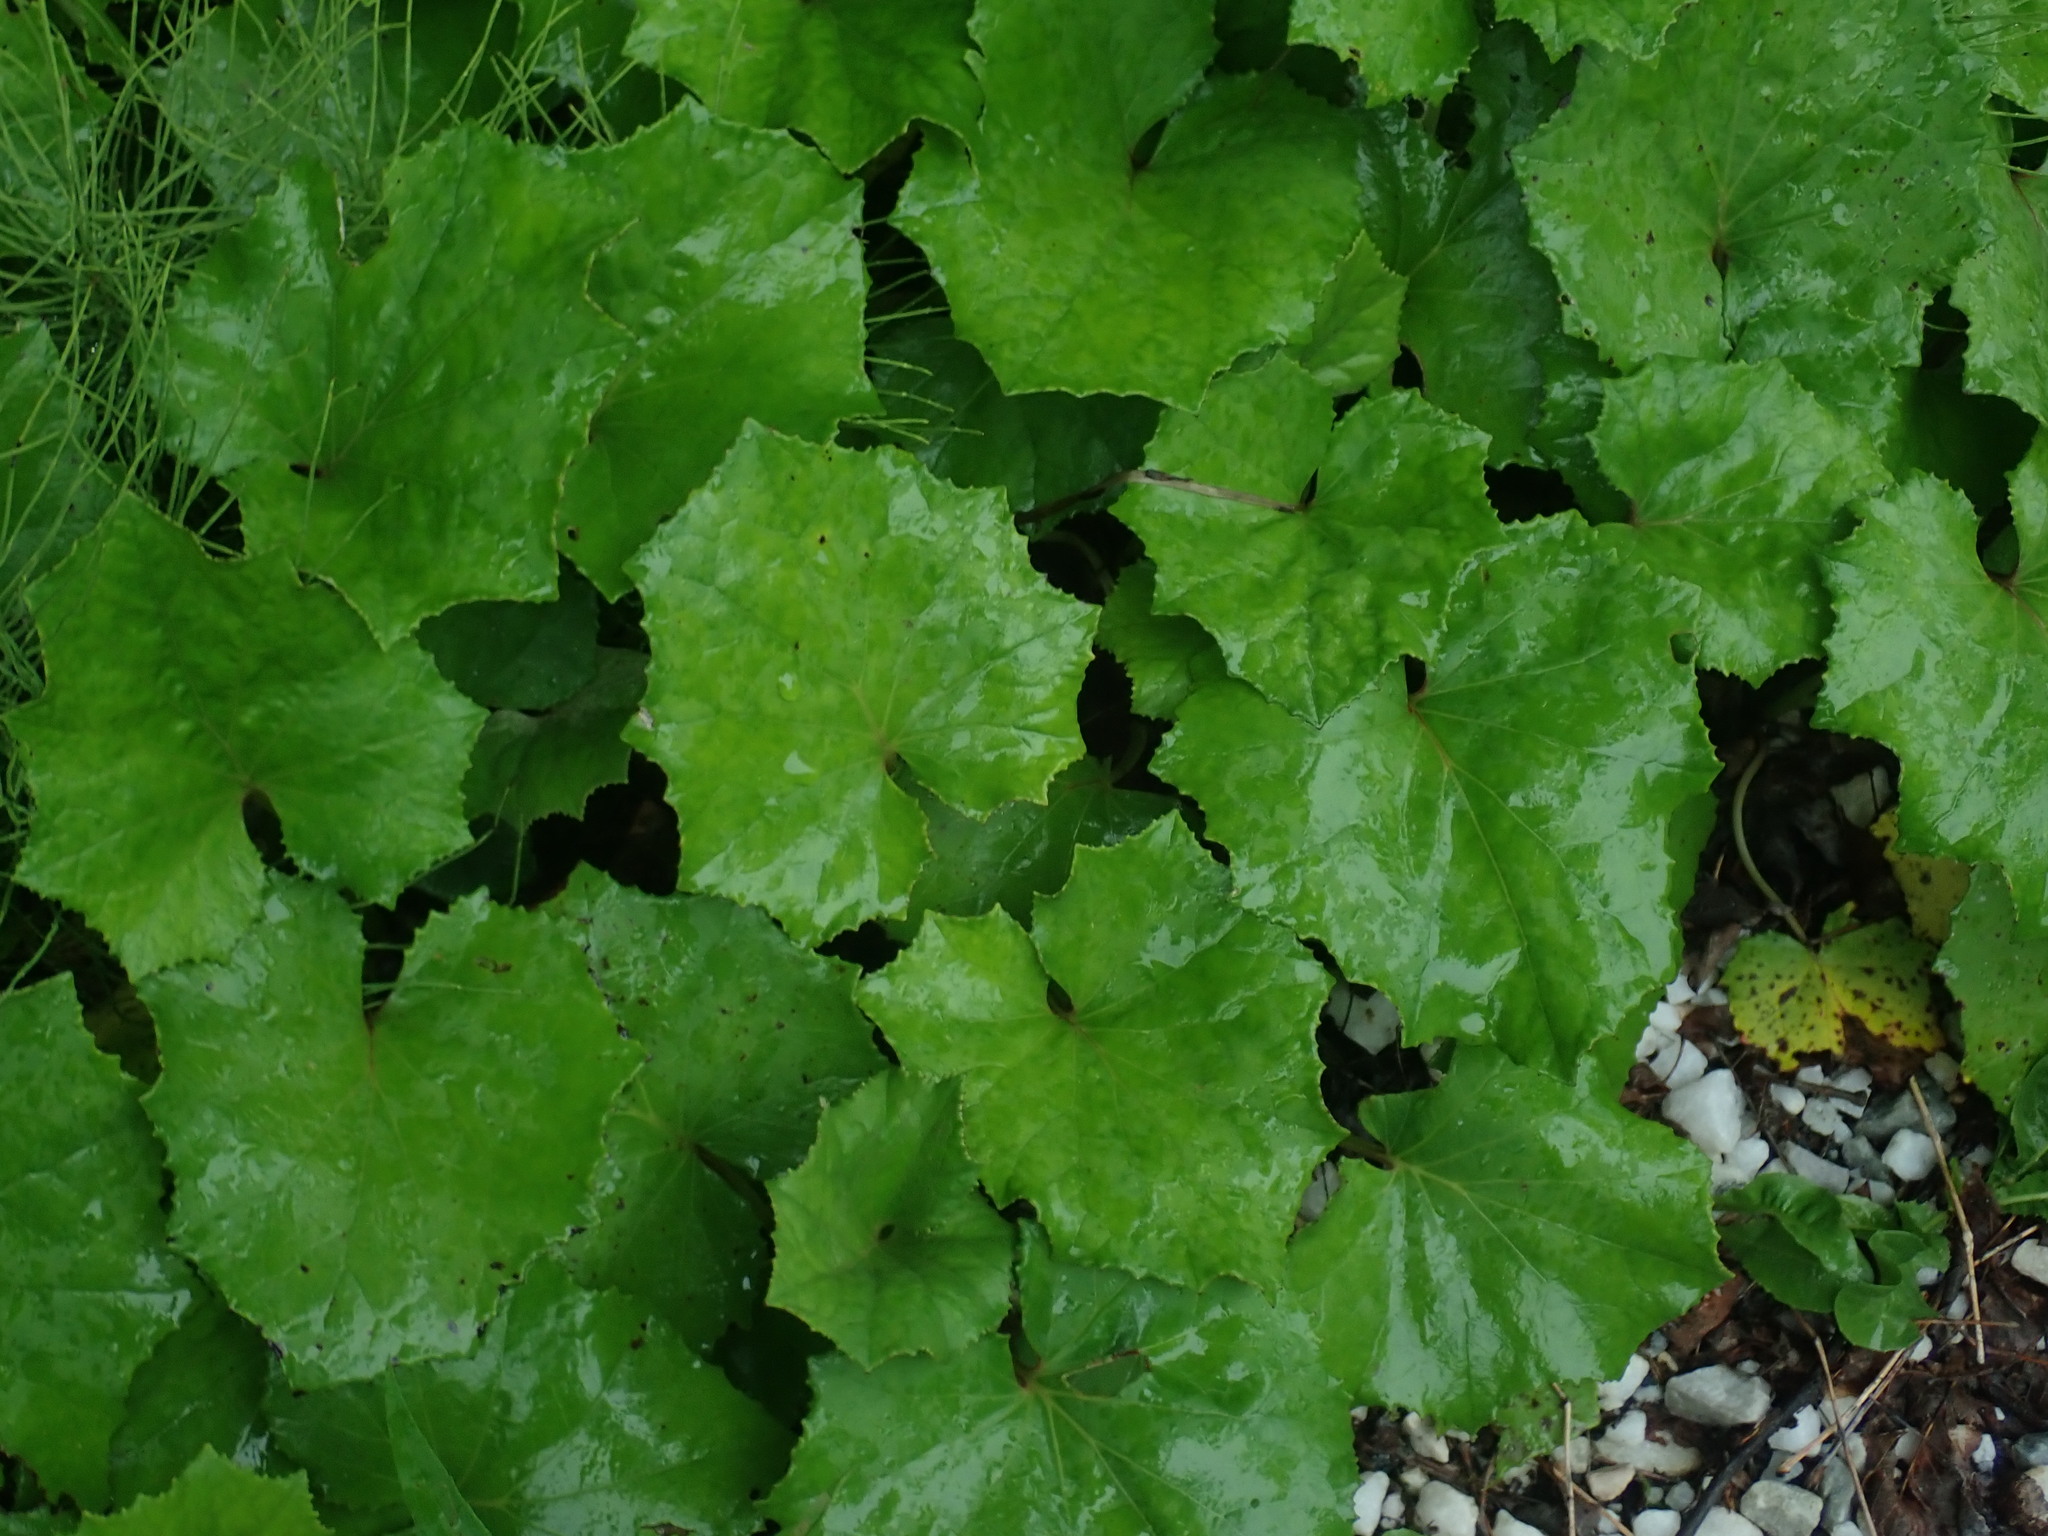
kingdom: Plantae
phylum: Tracheophyta
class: Magnoliopsida
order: Asterales
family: Asteraceae
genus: Tussilago
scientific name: Tussilago farfara
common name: Coltsfoot
